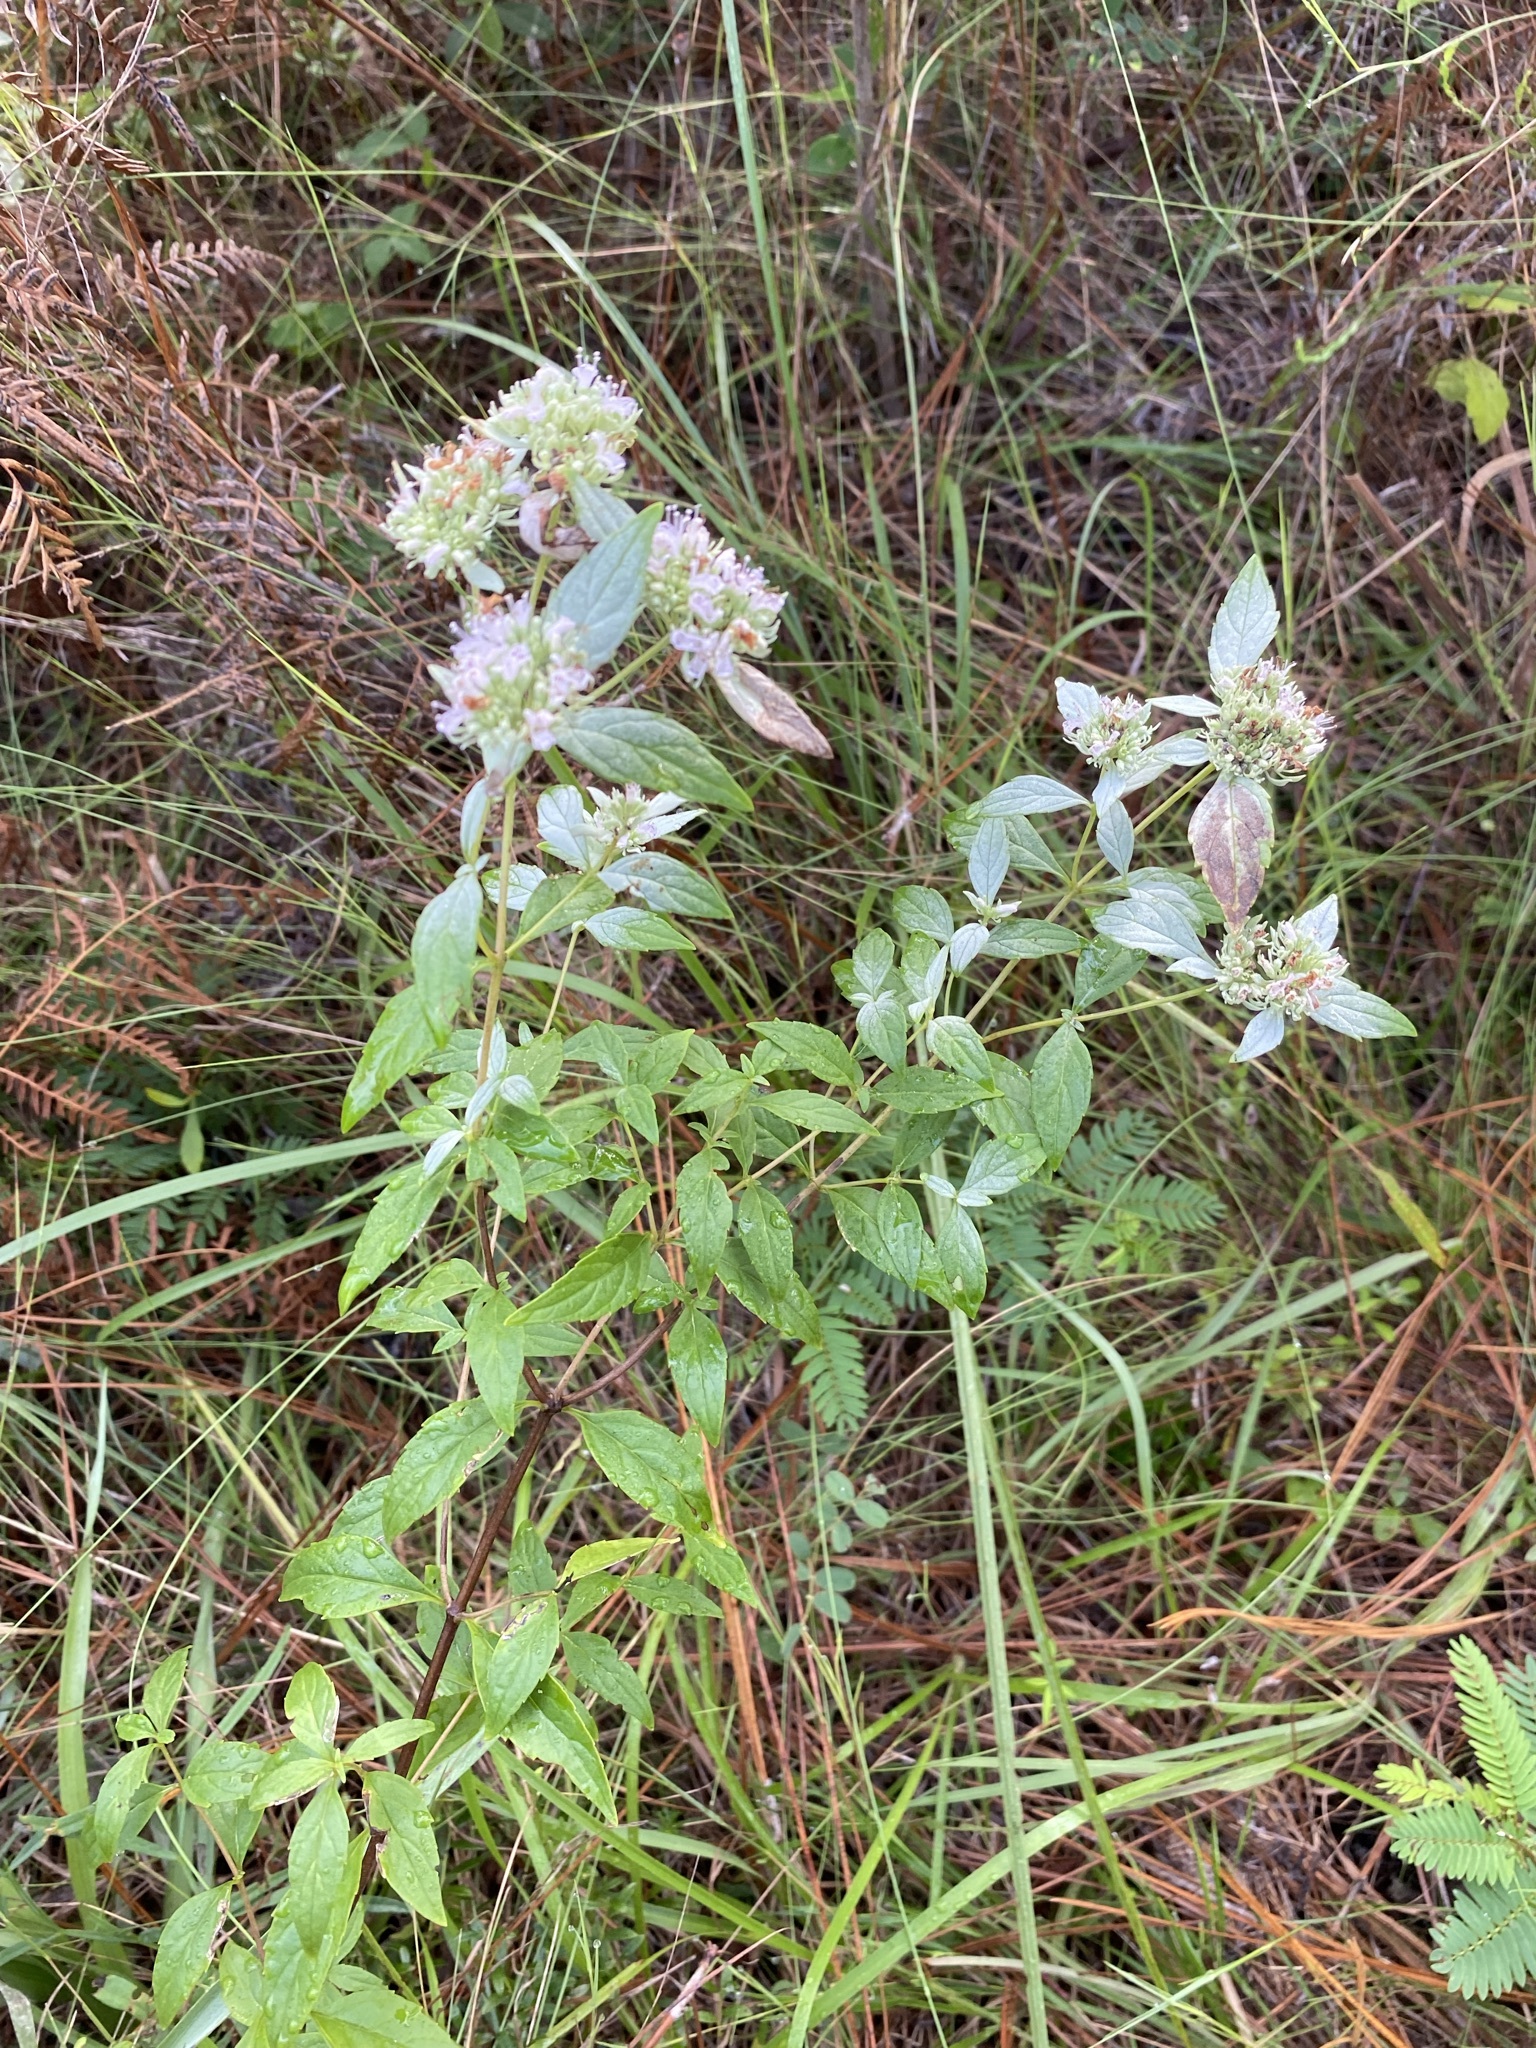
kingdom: Plantae
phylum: Tracheophyta
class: Magnoliopsida
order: Lamiales
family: Lamiaceae
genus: Pycnanthemum
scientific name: Pycnanthemum albescens
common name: White-leaf mountain-mint
